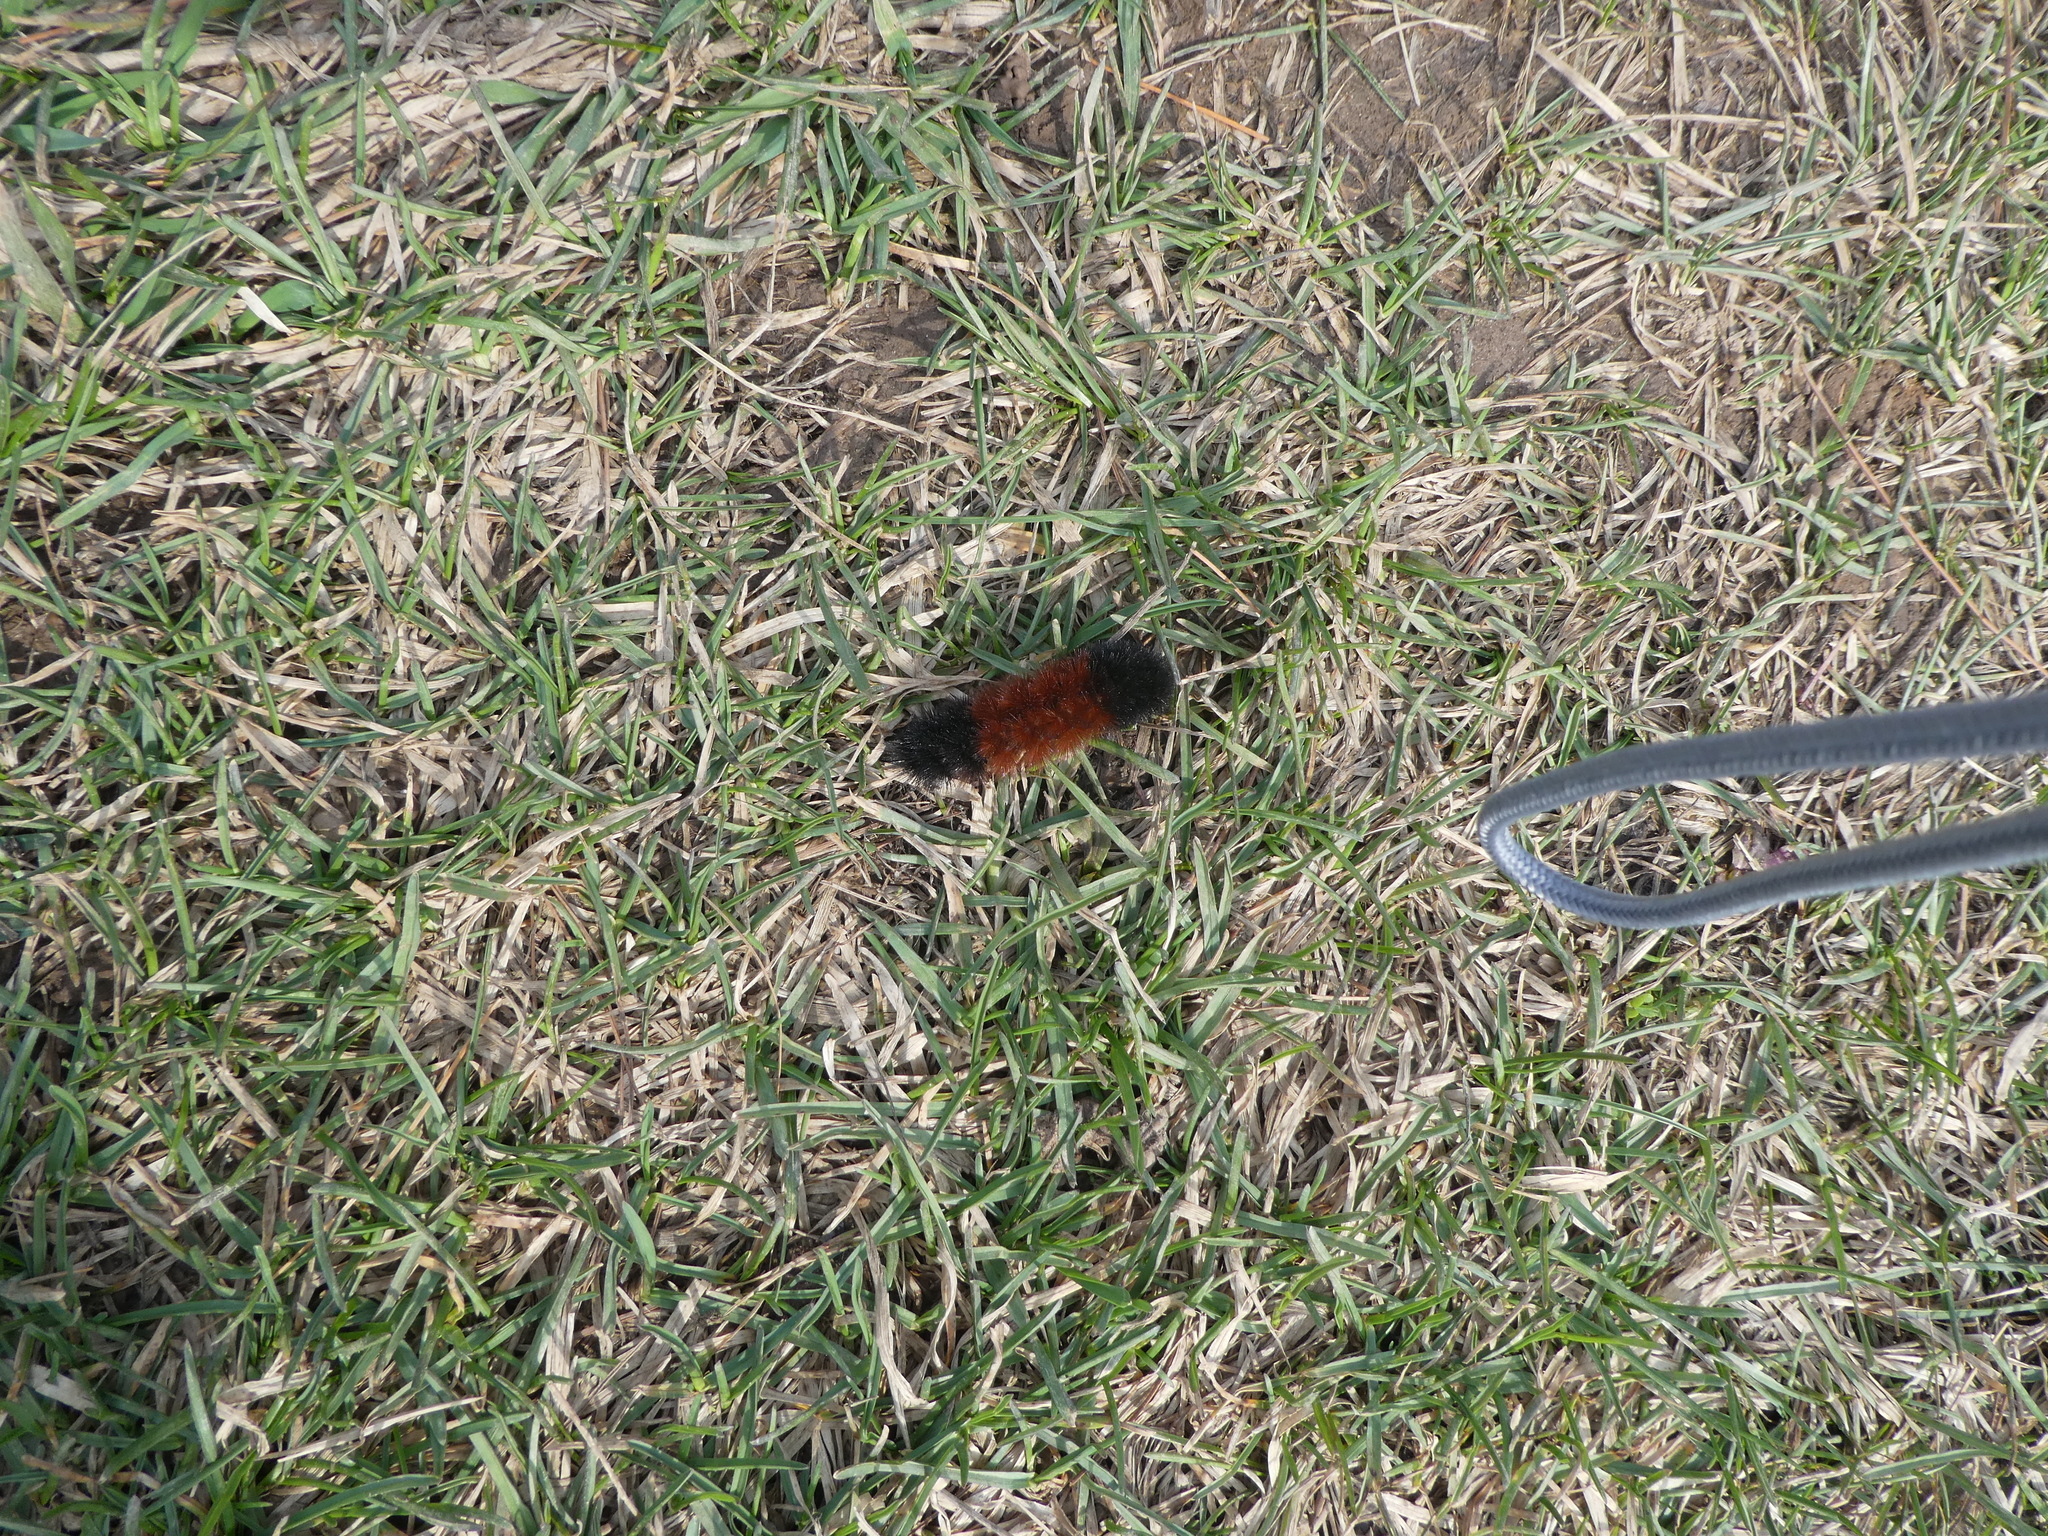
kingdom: Animalia
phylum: Arthropoda
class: Insecta
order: Lepidoptera
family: Erebidae
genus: Pyrrharctia
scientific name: Pyrrharctia isabella
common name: Isabella tiger moth
